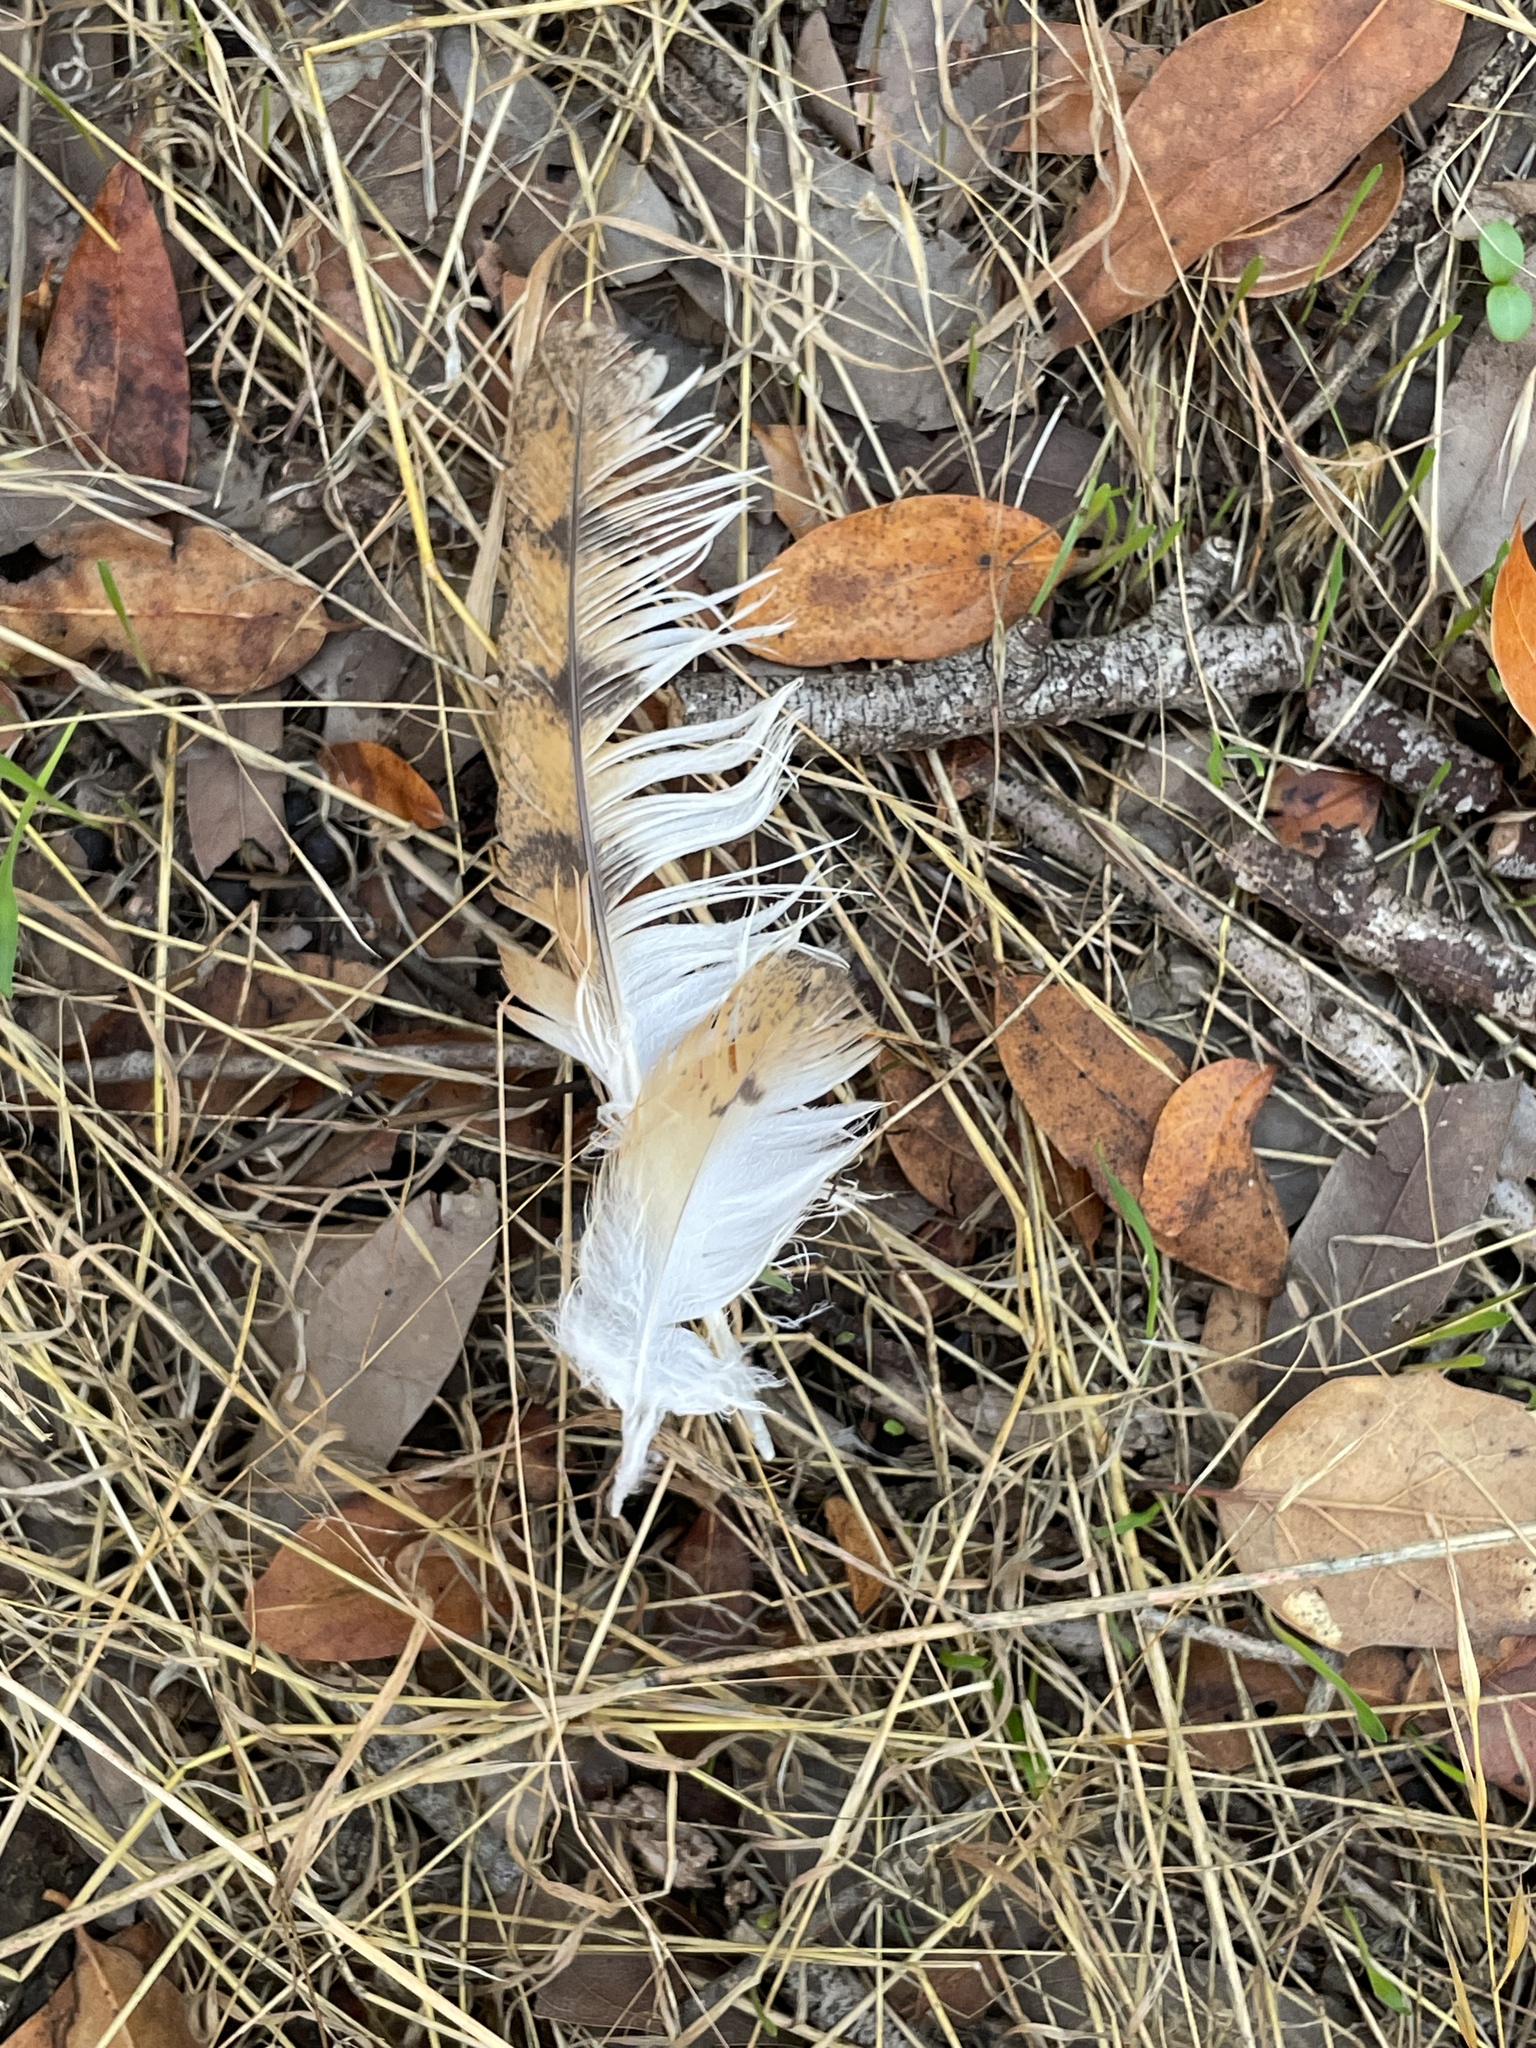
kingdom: Animalia
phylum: Chordata
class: Aves
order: Strigiformes
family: Tytonidae
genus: Tyto
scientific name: Tyto alba
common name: Barn owl
